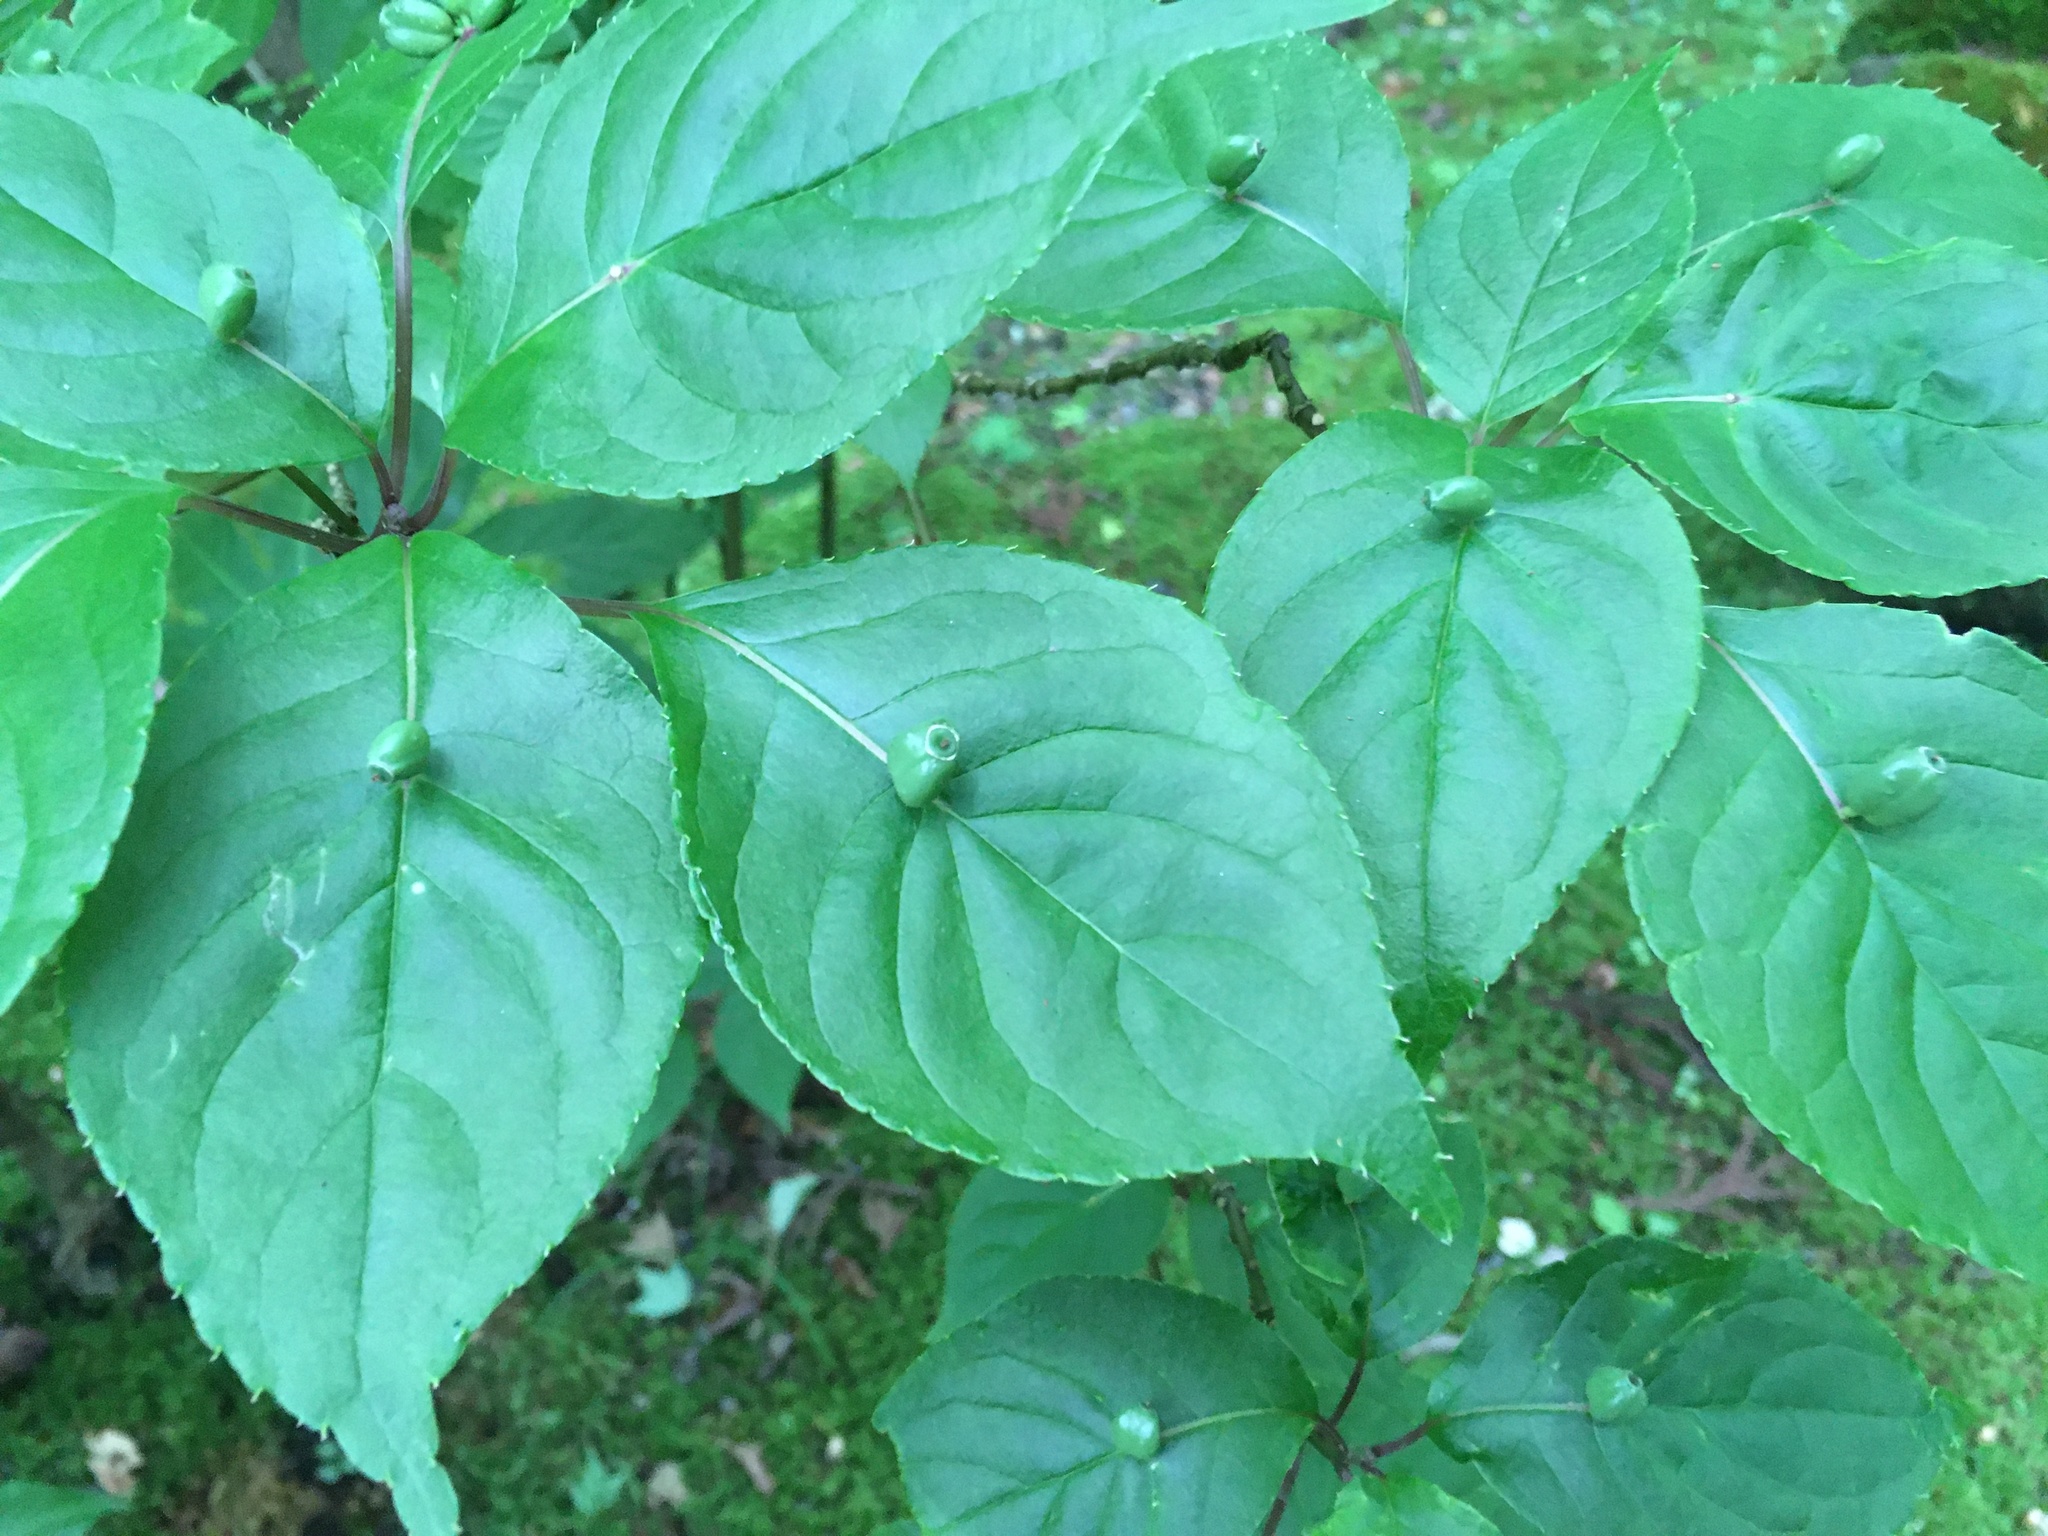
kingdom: Plantae
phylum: Tracheophyta
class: Magnoliopsida
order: Aquifoliales
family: Helwingiaceae
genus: Helwingia
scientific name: Helwingia japonica
